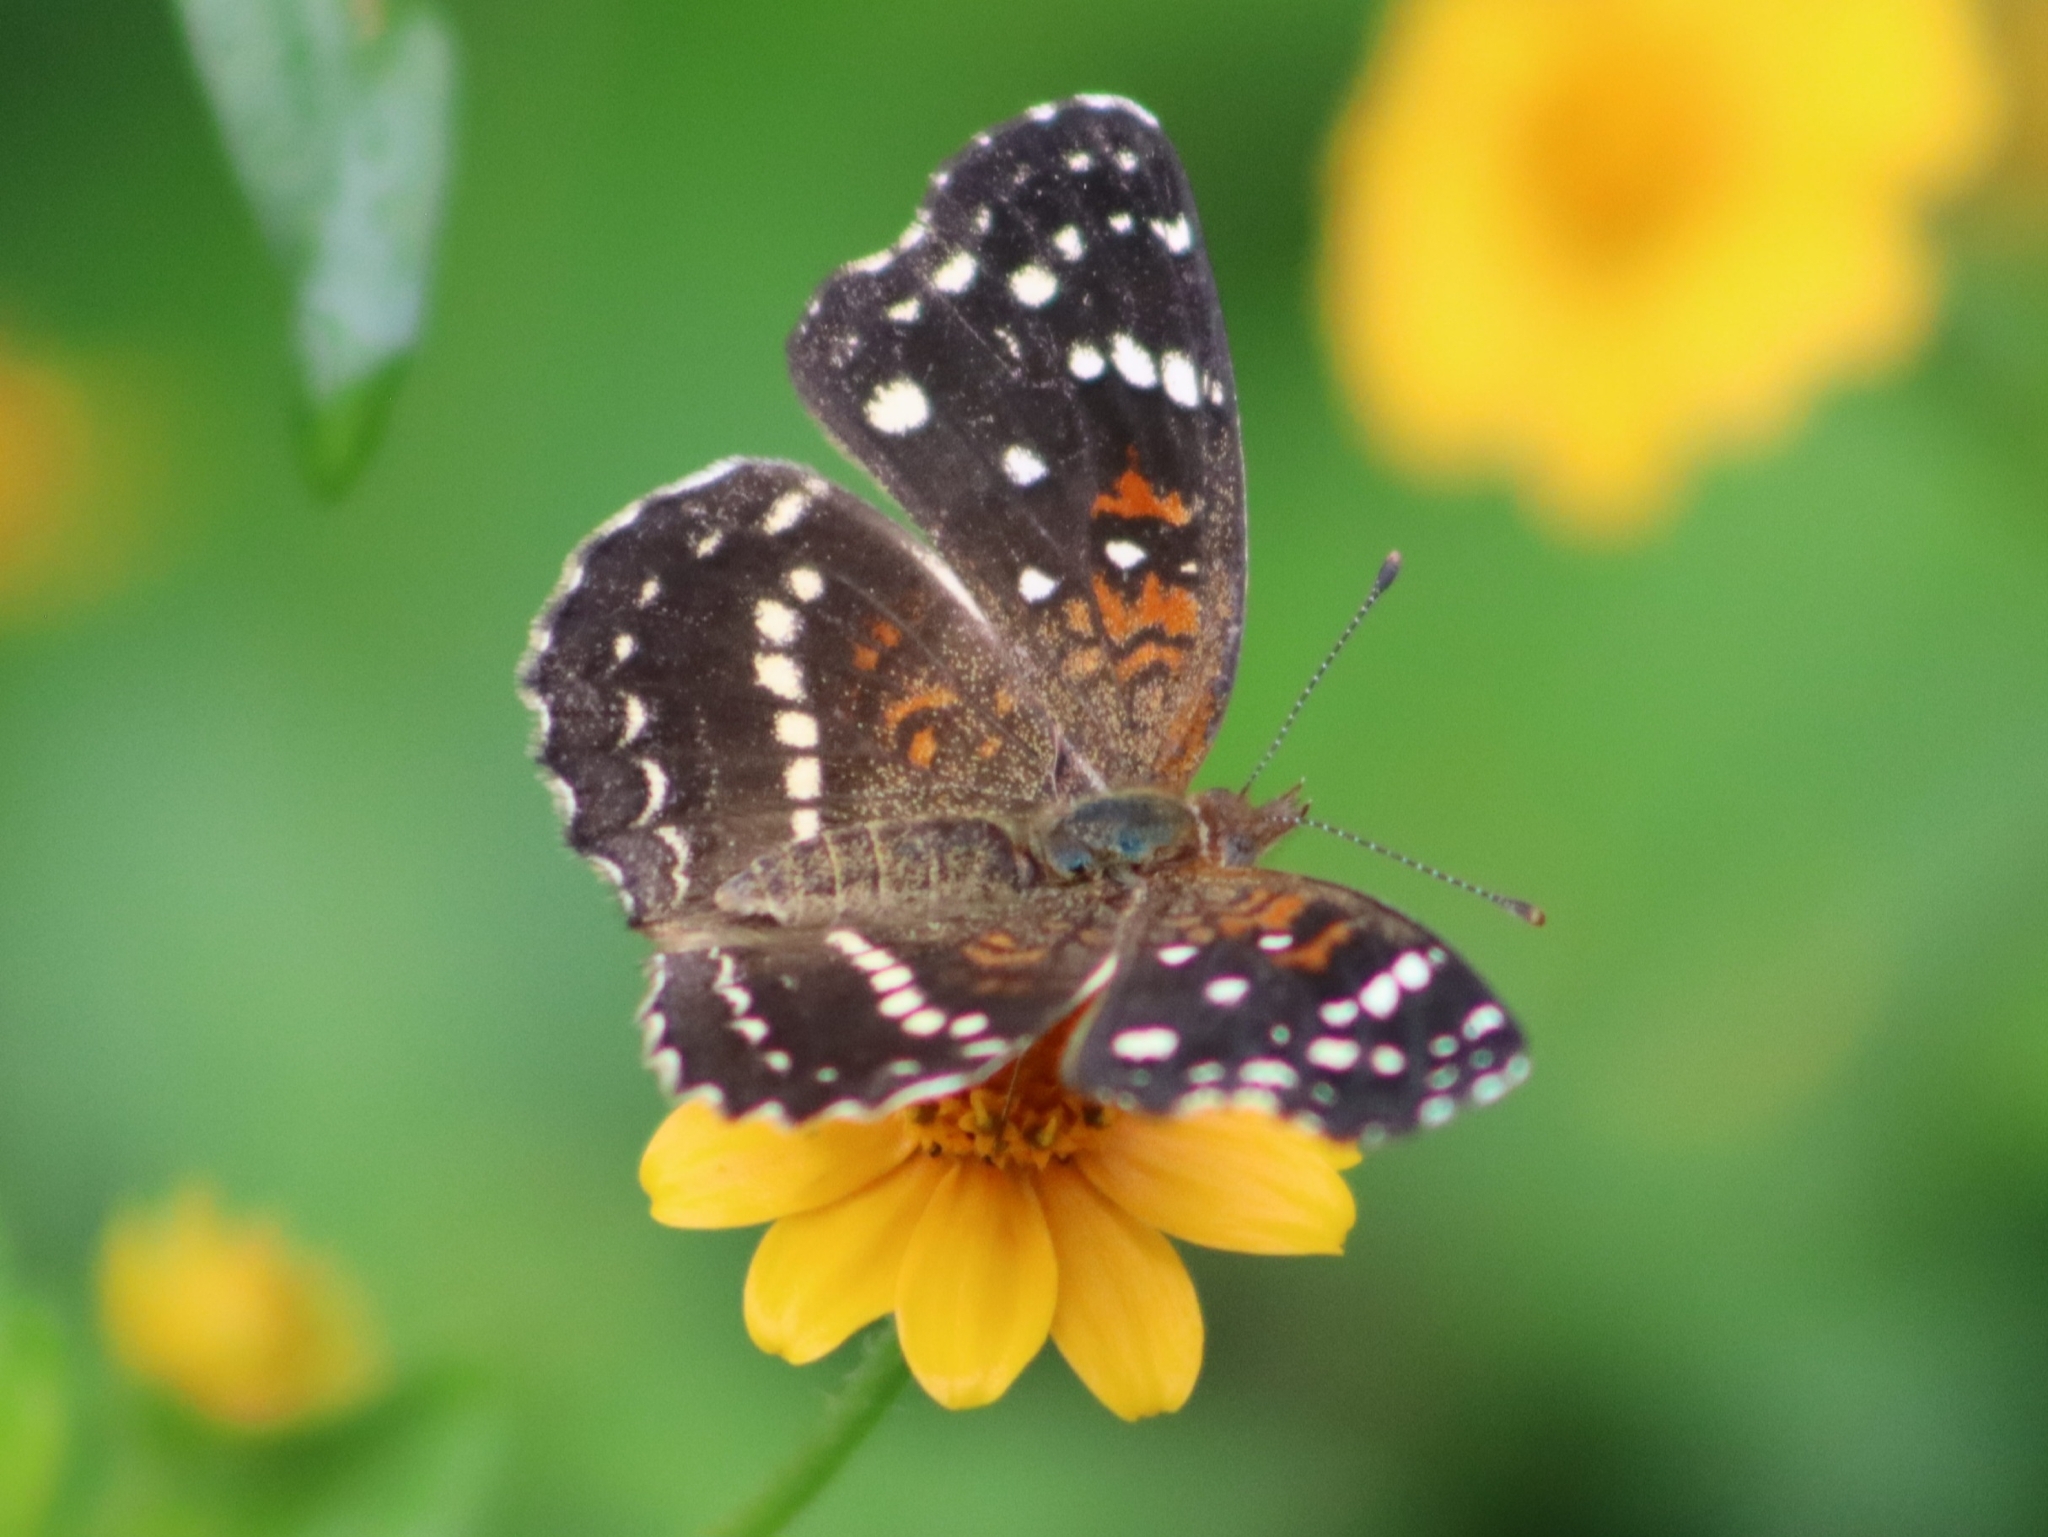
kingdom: Animalia
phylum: Arthropoda
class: Insecta
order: Lepidoptera
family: Nymphalidae
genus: Anthanassa
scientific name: Anthanassa texana
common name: Texan crescent
